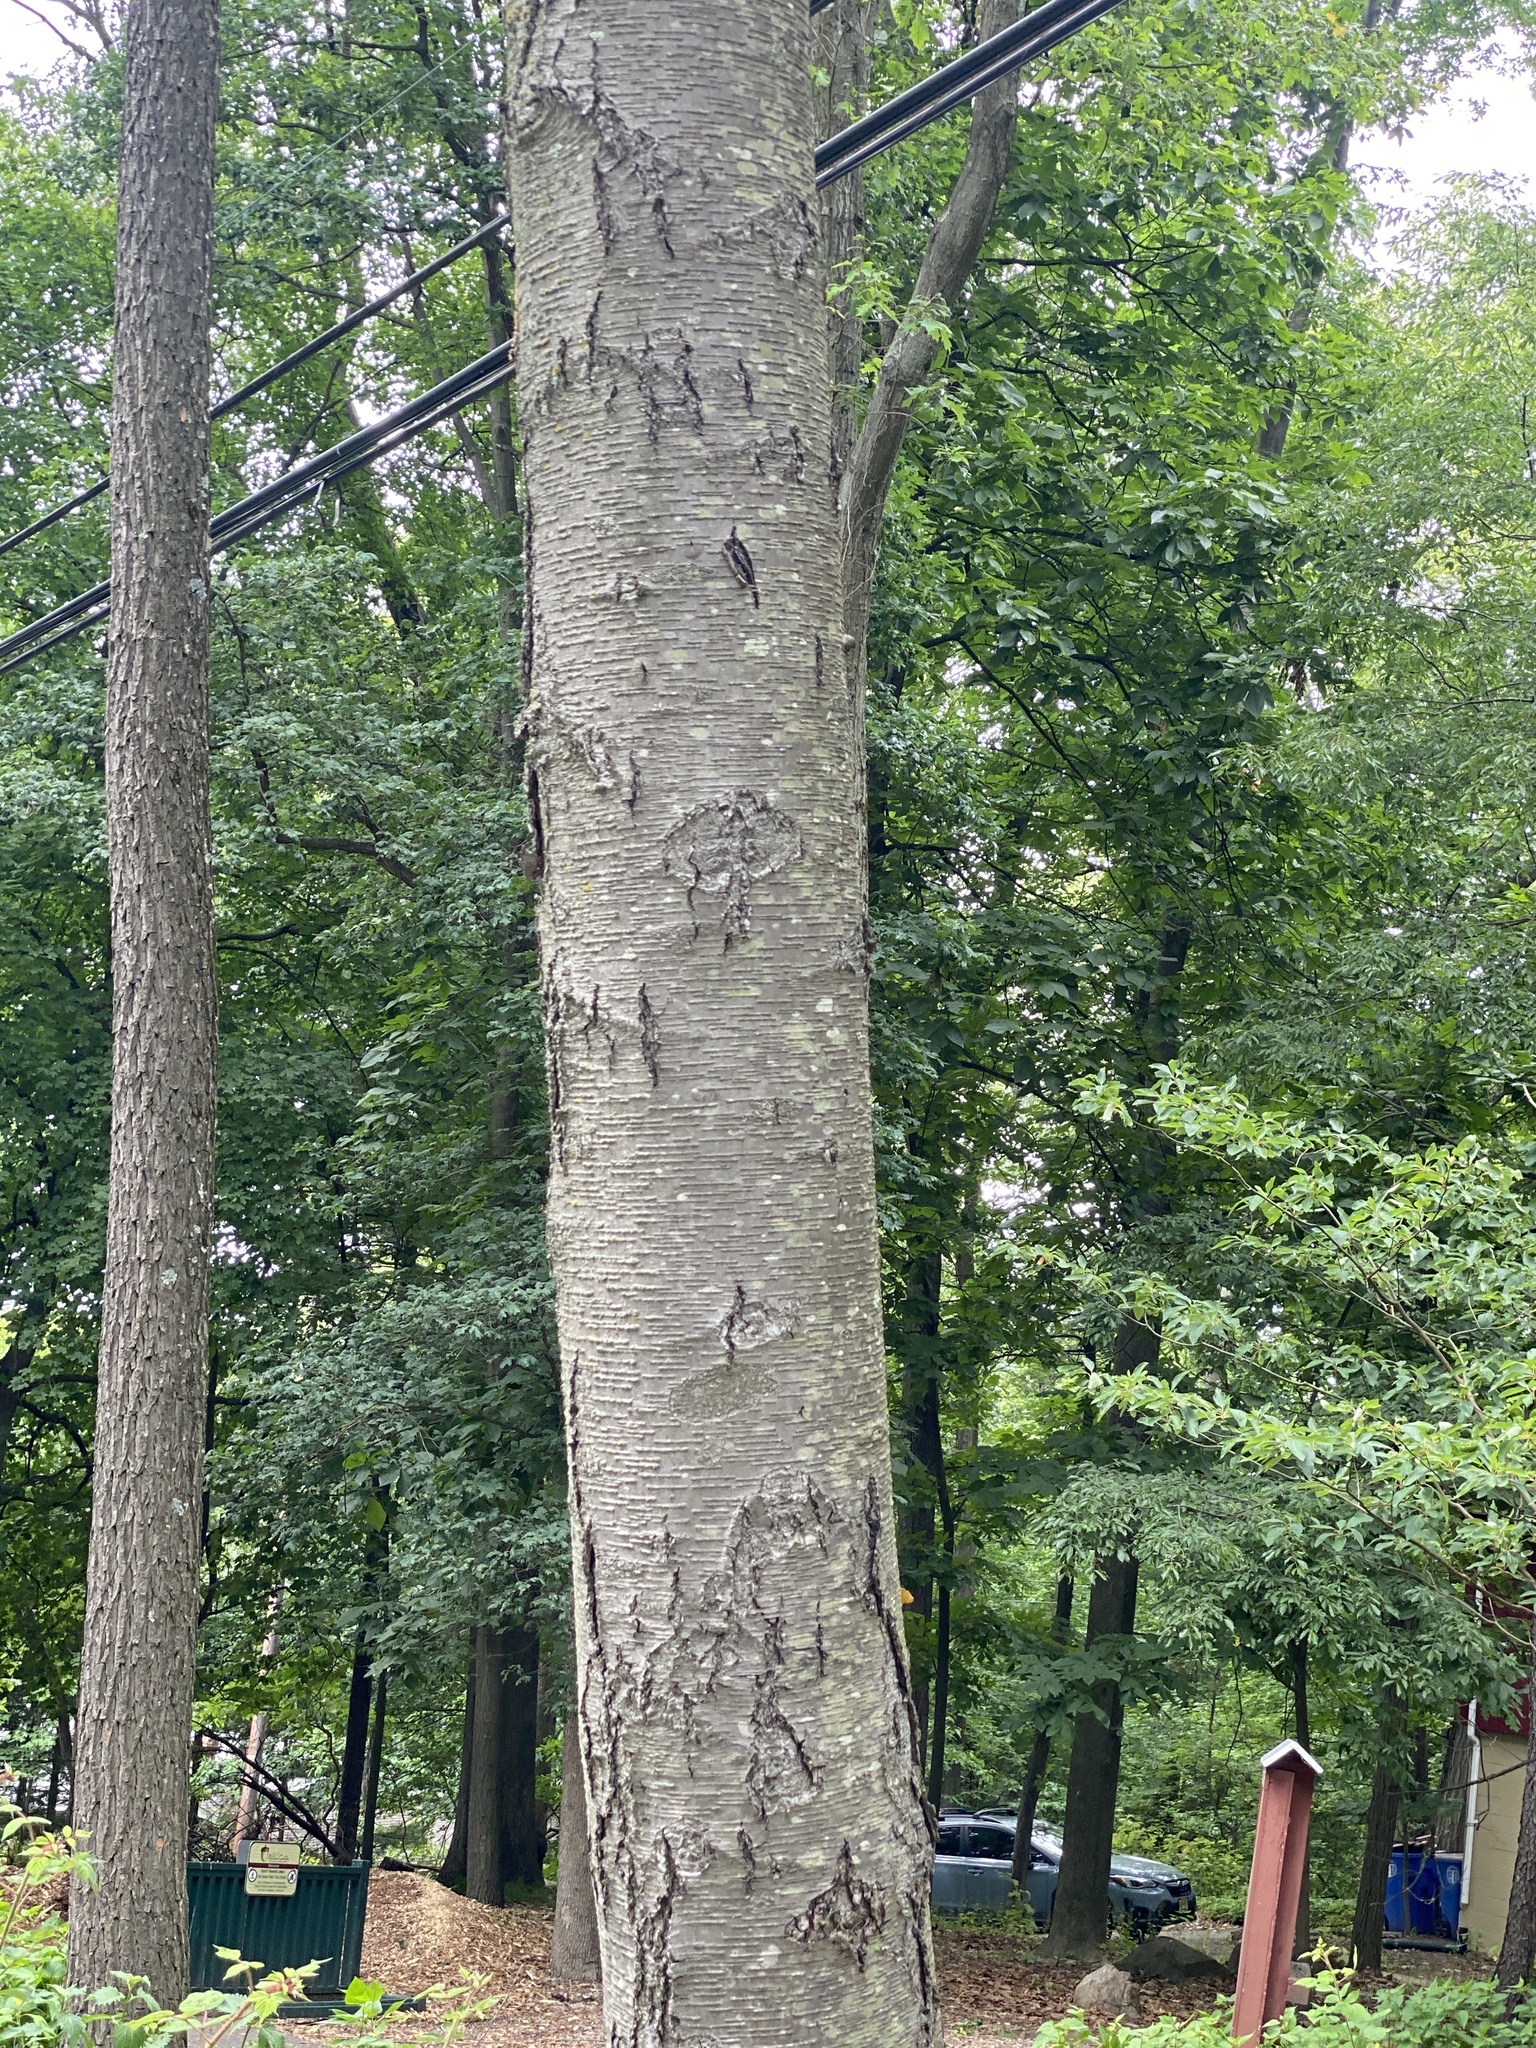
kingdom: Plantae
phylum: Tracheophyta
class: Magnoliopsida
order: Fagales
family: Betulaceae
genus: Betula
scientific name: Betula lenta
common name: Black birch
